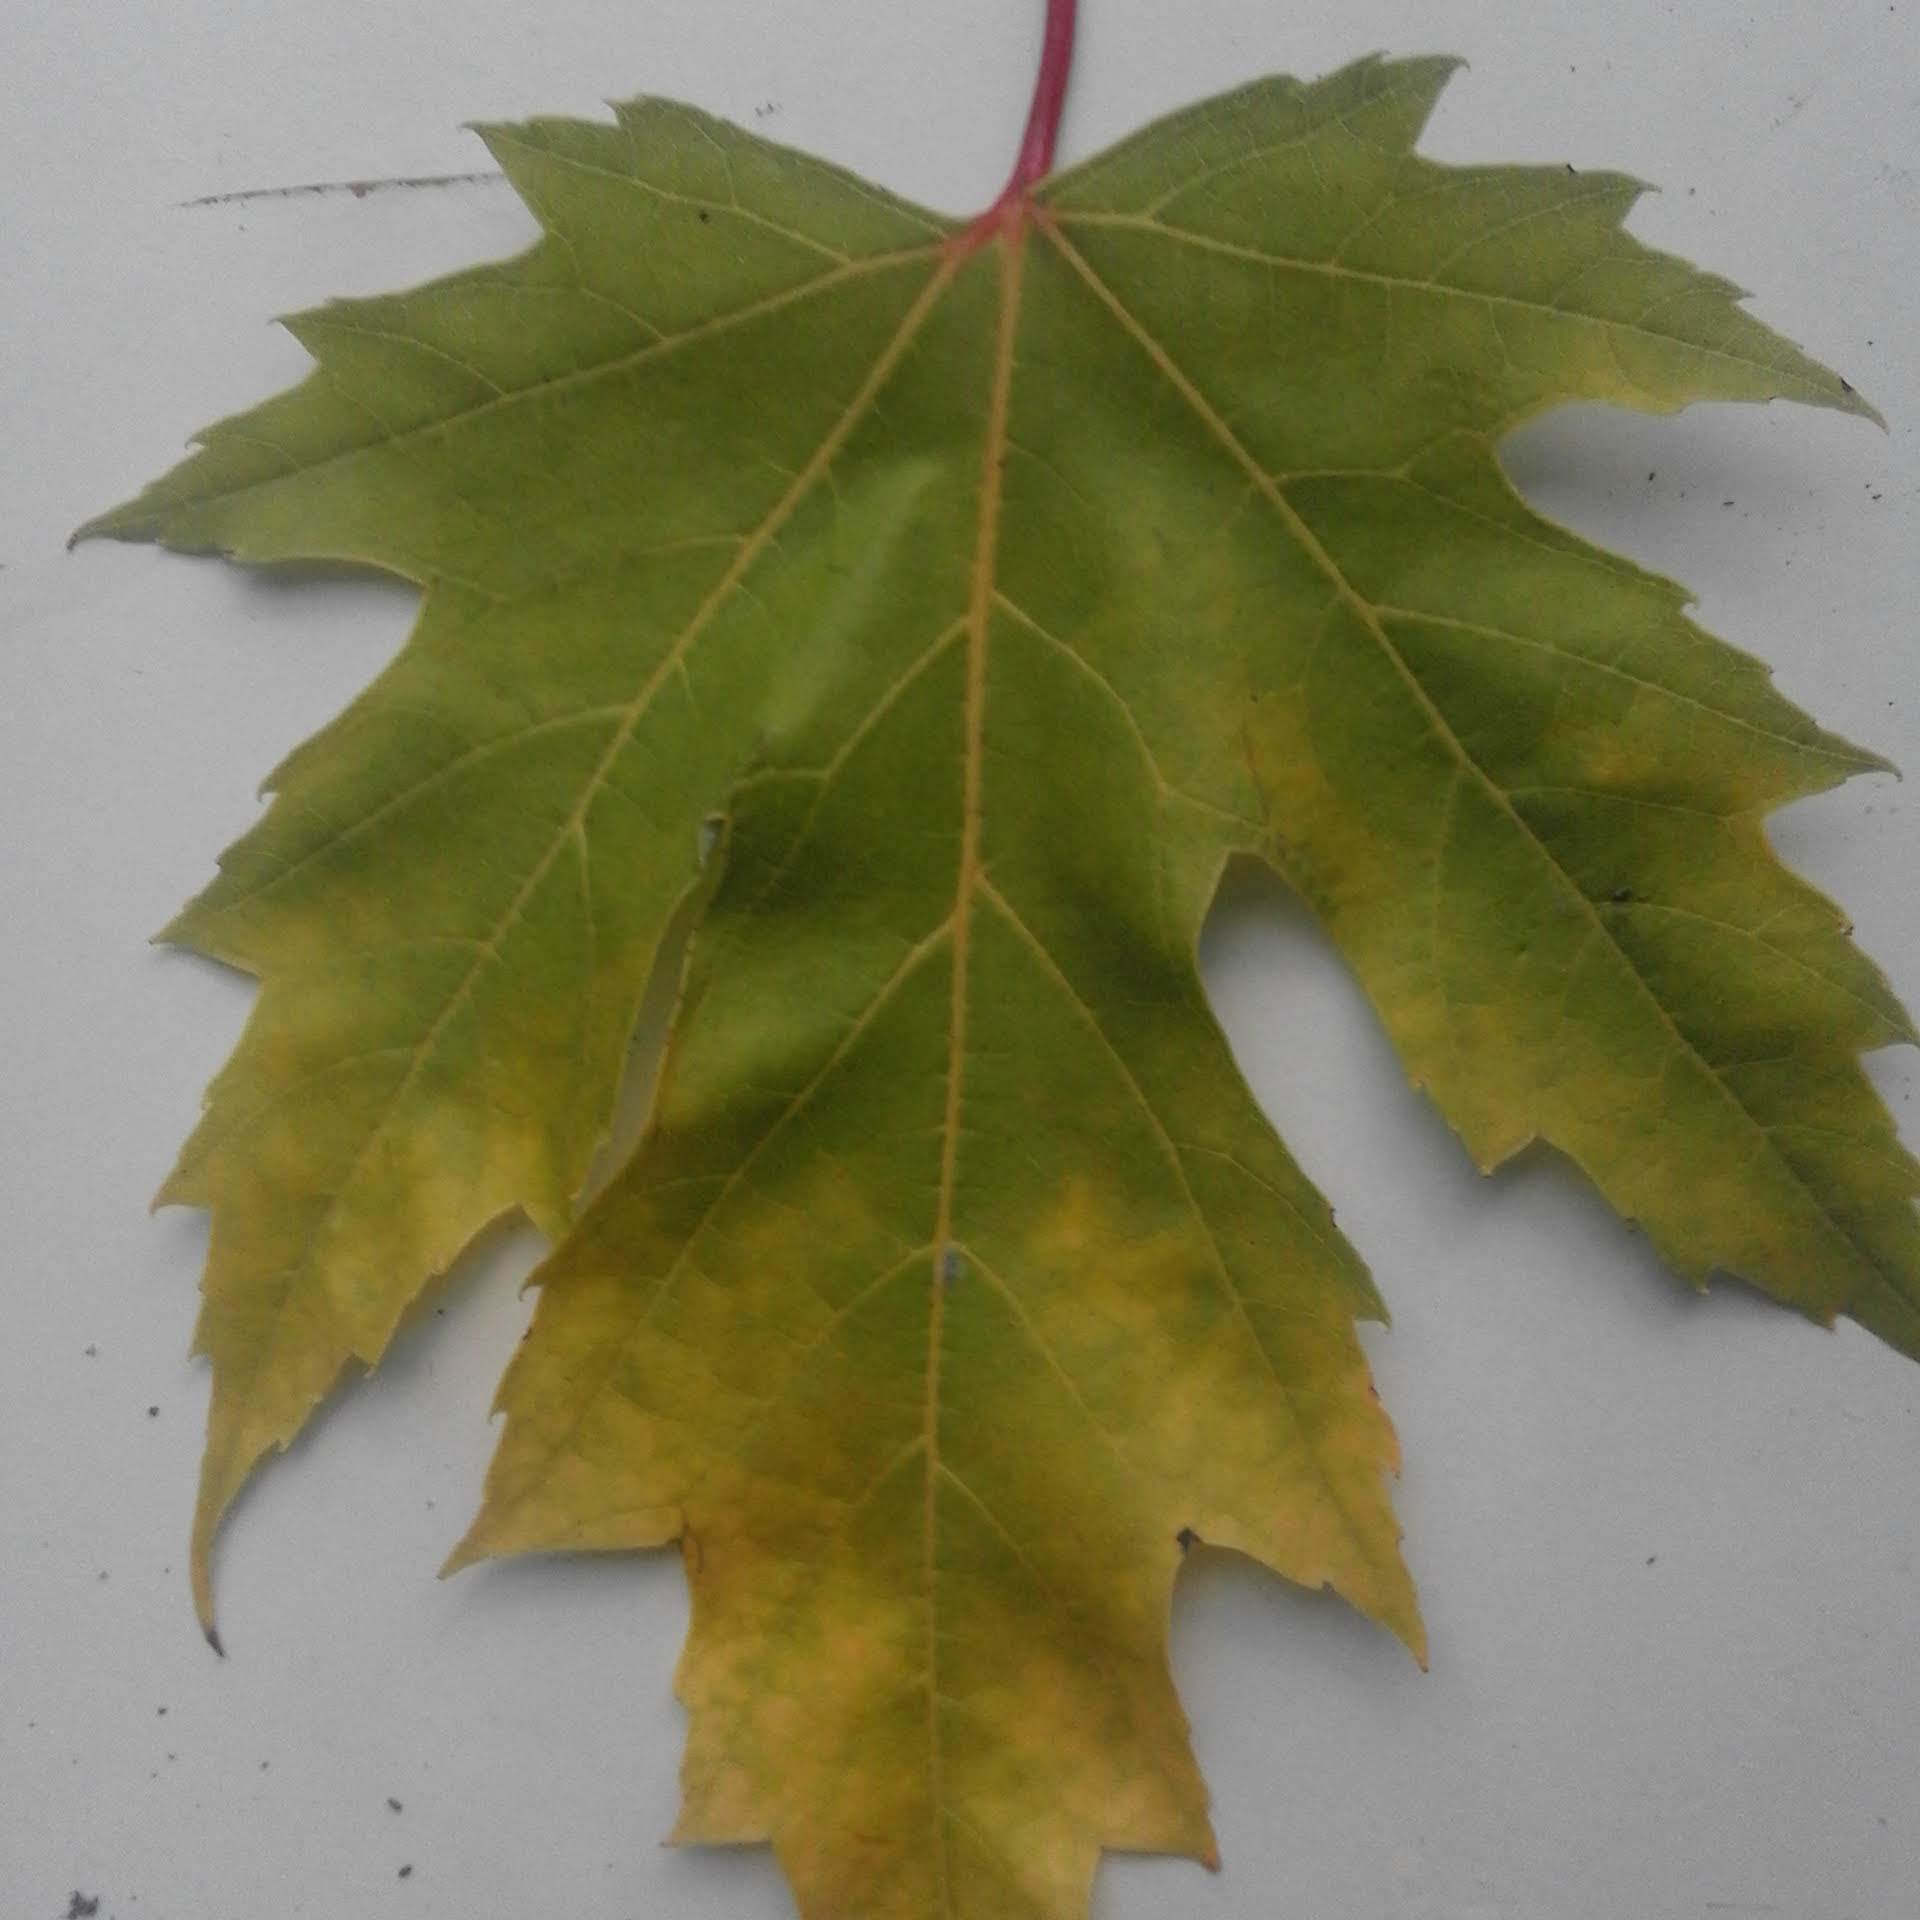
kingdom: Plantae
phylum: Tracheophyta
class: Magnoliopsida
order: Sapindales
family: Sapindaceae
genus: Acer
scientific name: Acer saccharinum
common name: Silver maple
